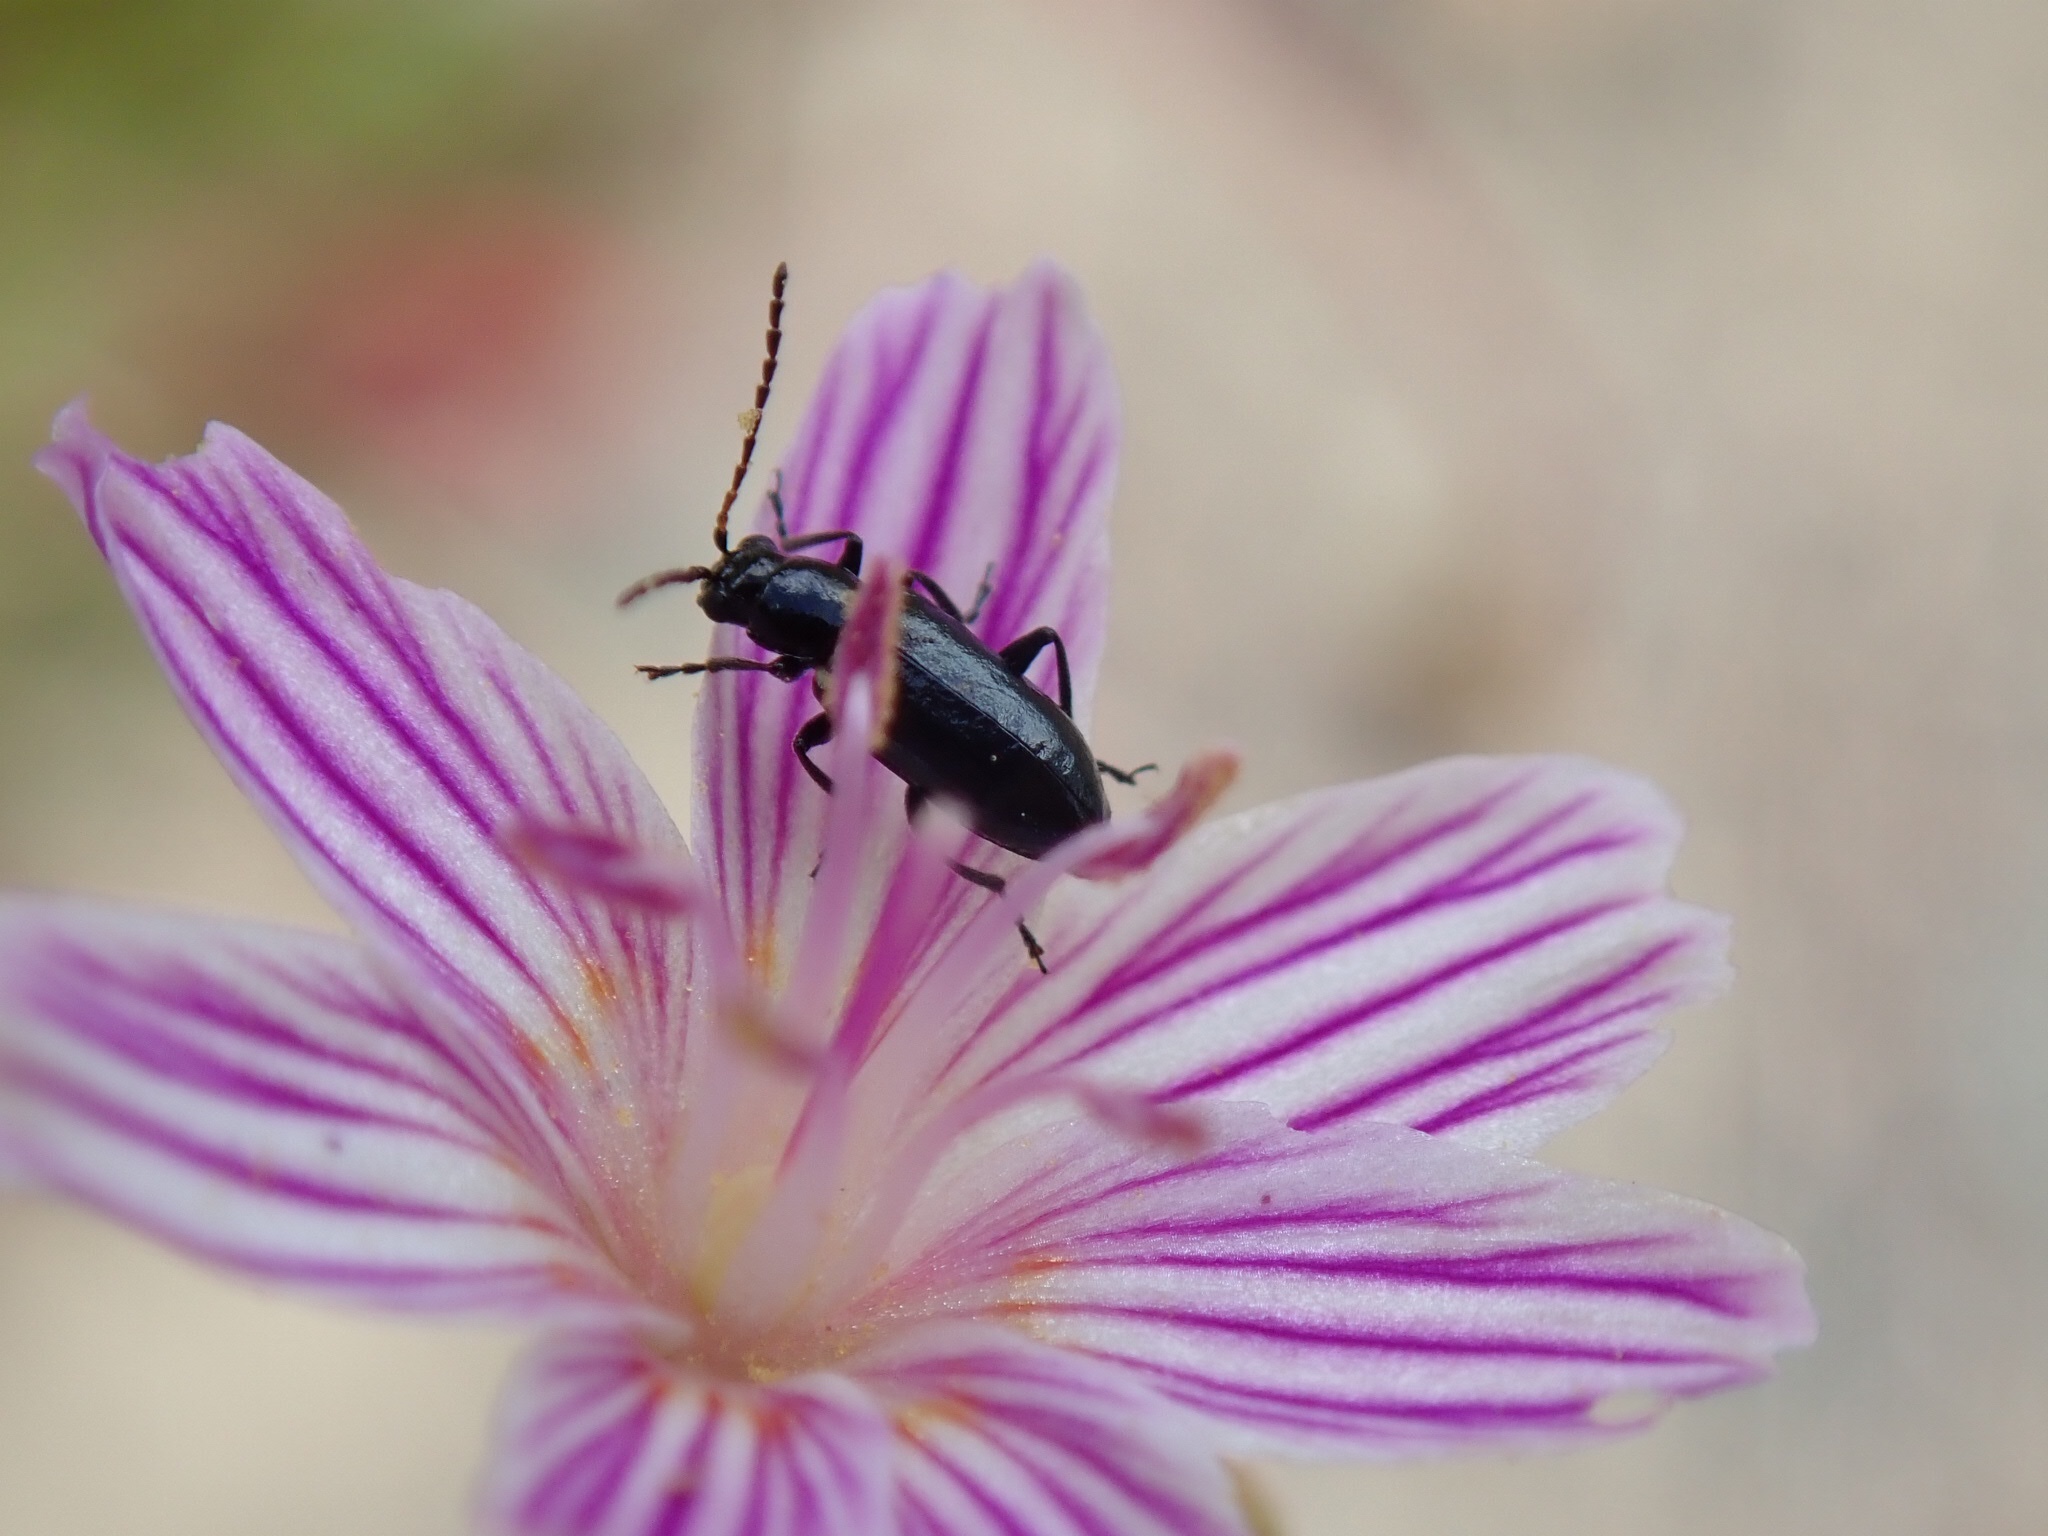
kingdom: Animalia
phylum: Arthropoda
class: Insecta
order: Coleoptera
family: Chrysomelidae
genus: Pseudoluperus
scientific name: Pseudoluperus longulus
